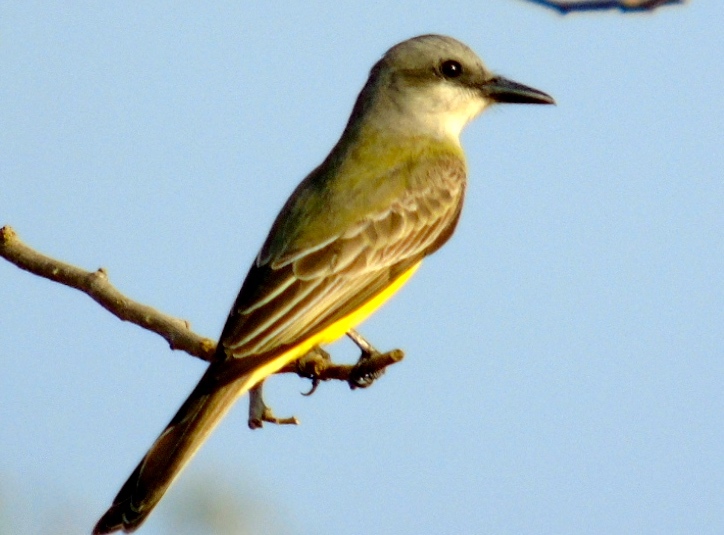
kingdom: Animalia
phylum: Chordata
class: Aves
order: Passeriformes
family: Tyrannidae
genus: Tyrannus
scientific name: Tyrannus melancholicus
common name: Tropical kingbird
